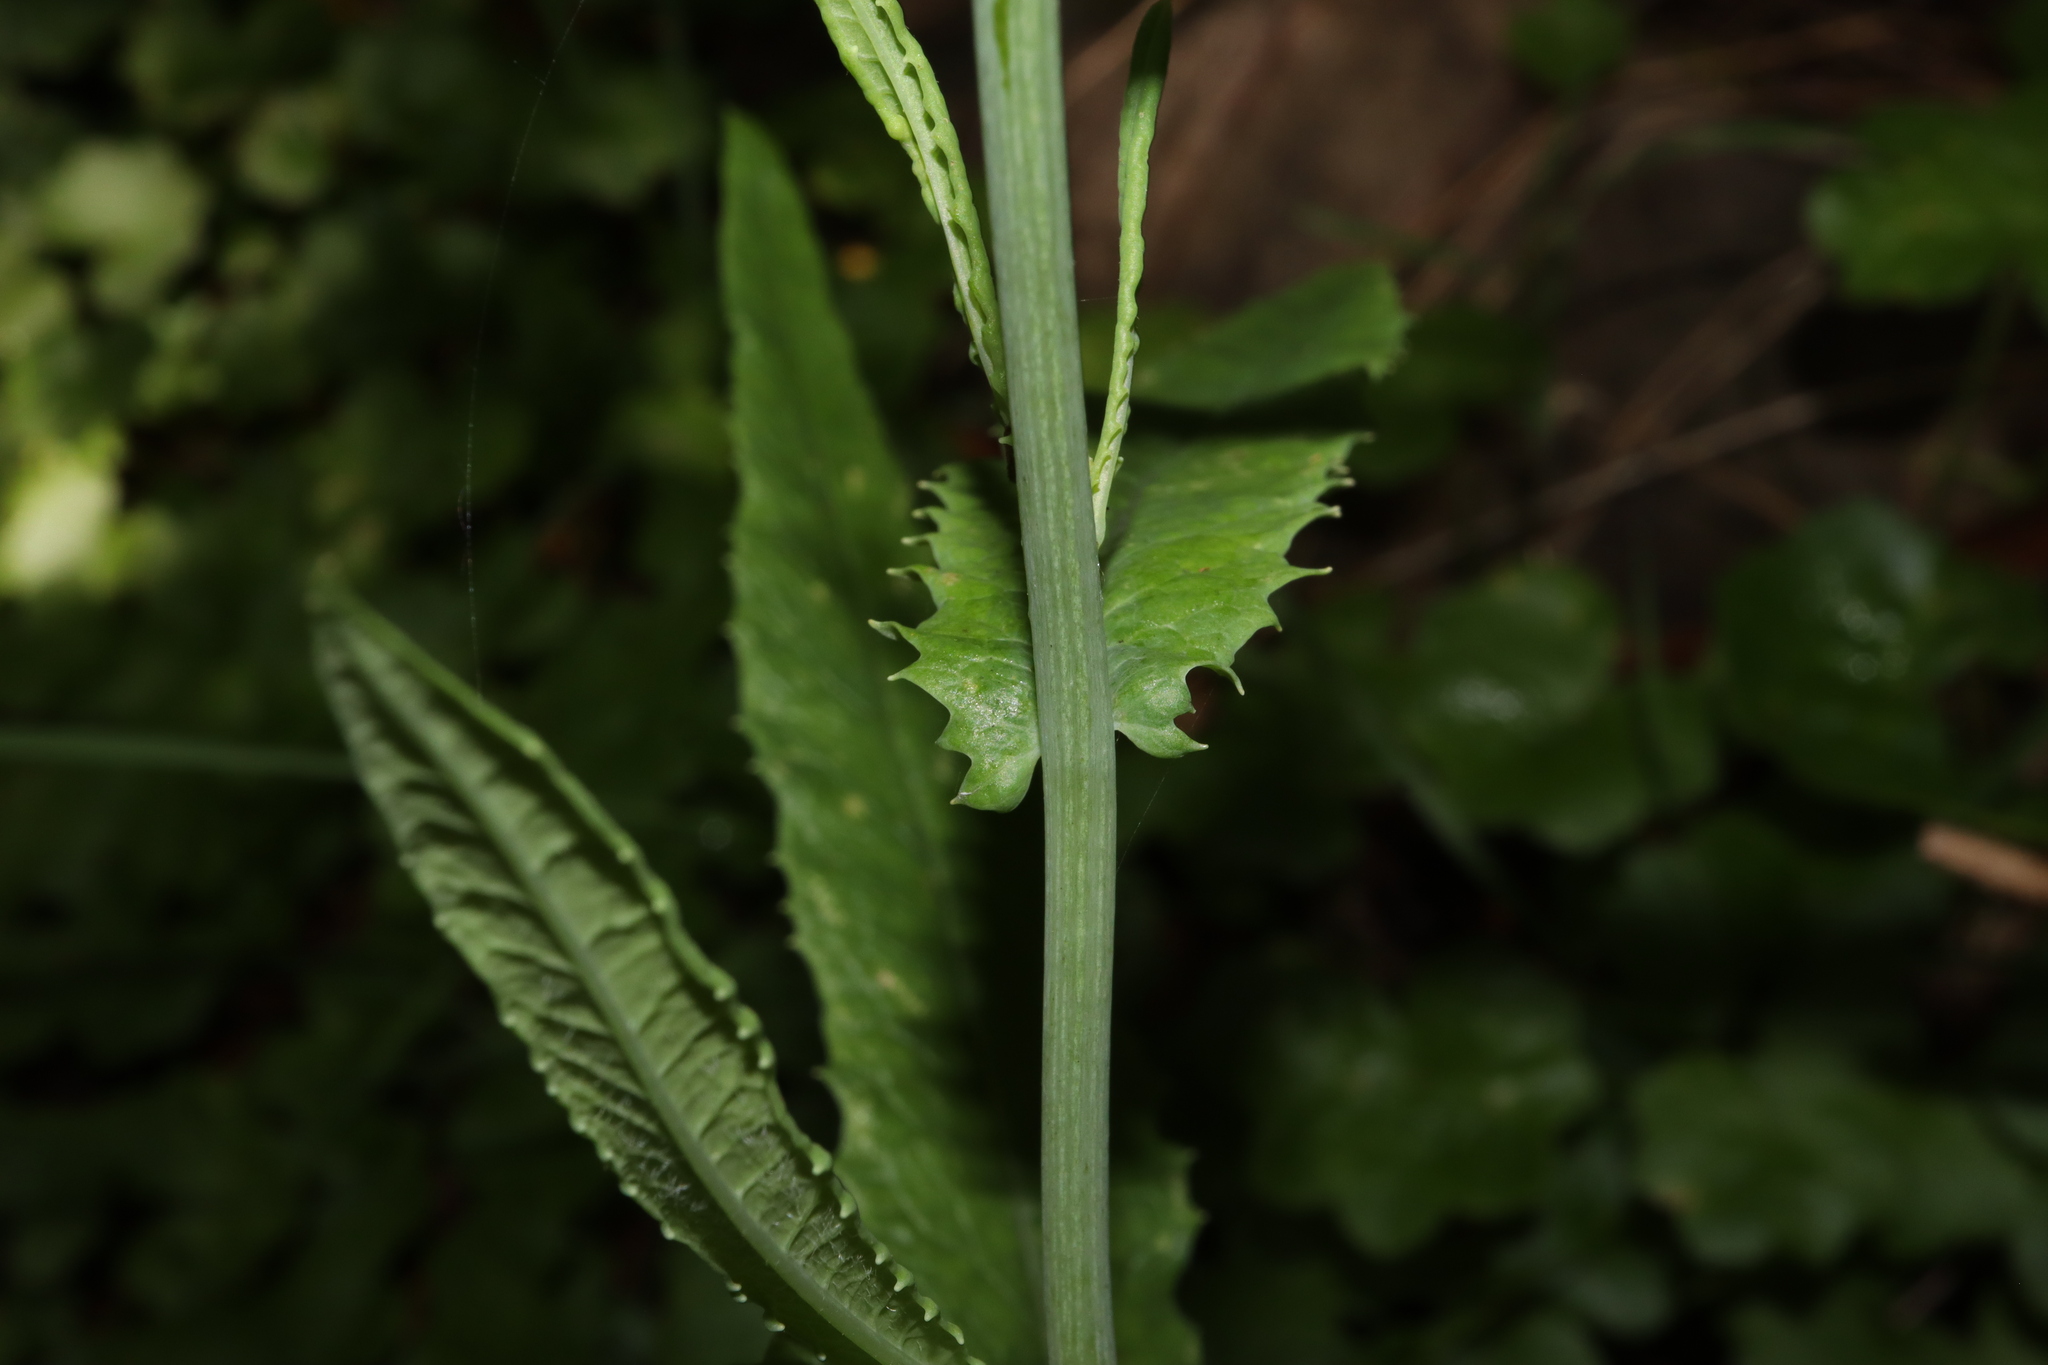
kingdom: Plantae
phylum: Tracheophyta
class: Magnoliopsida
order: Asterales
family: Asteraceae
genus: Senecio
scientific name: Senecio linearifolius
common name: Fireweed groundsel
